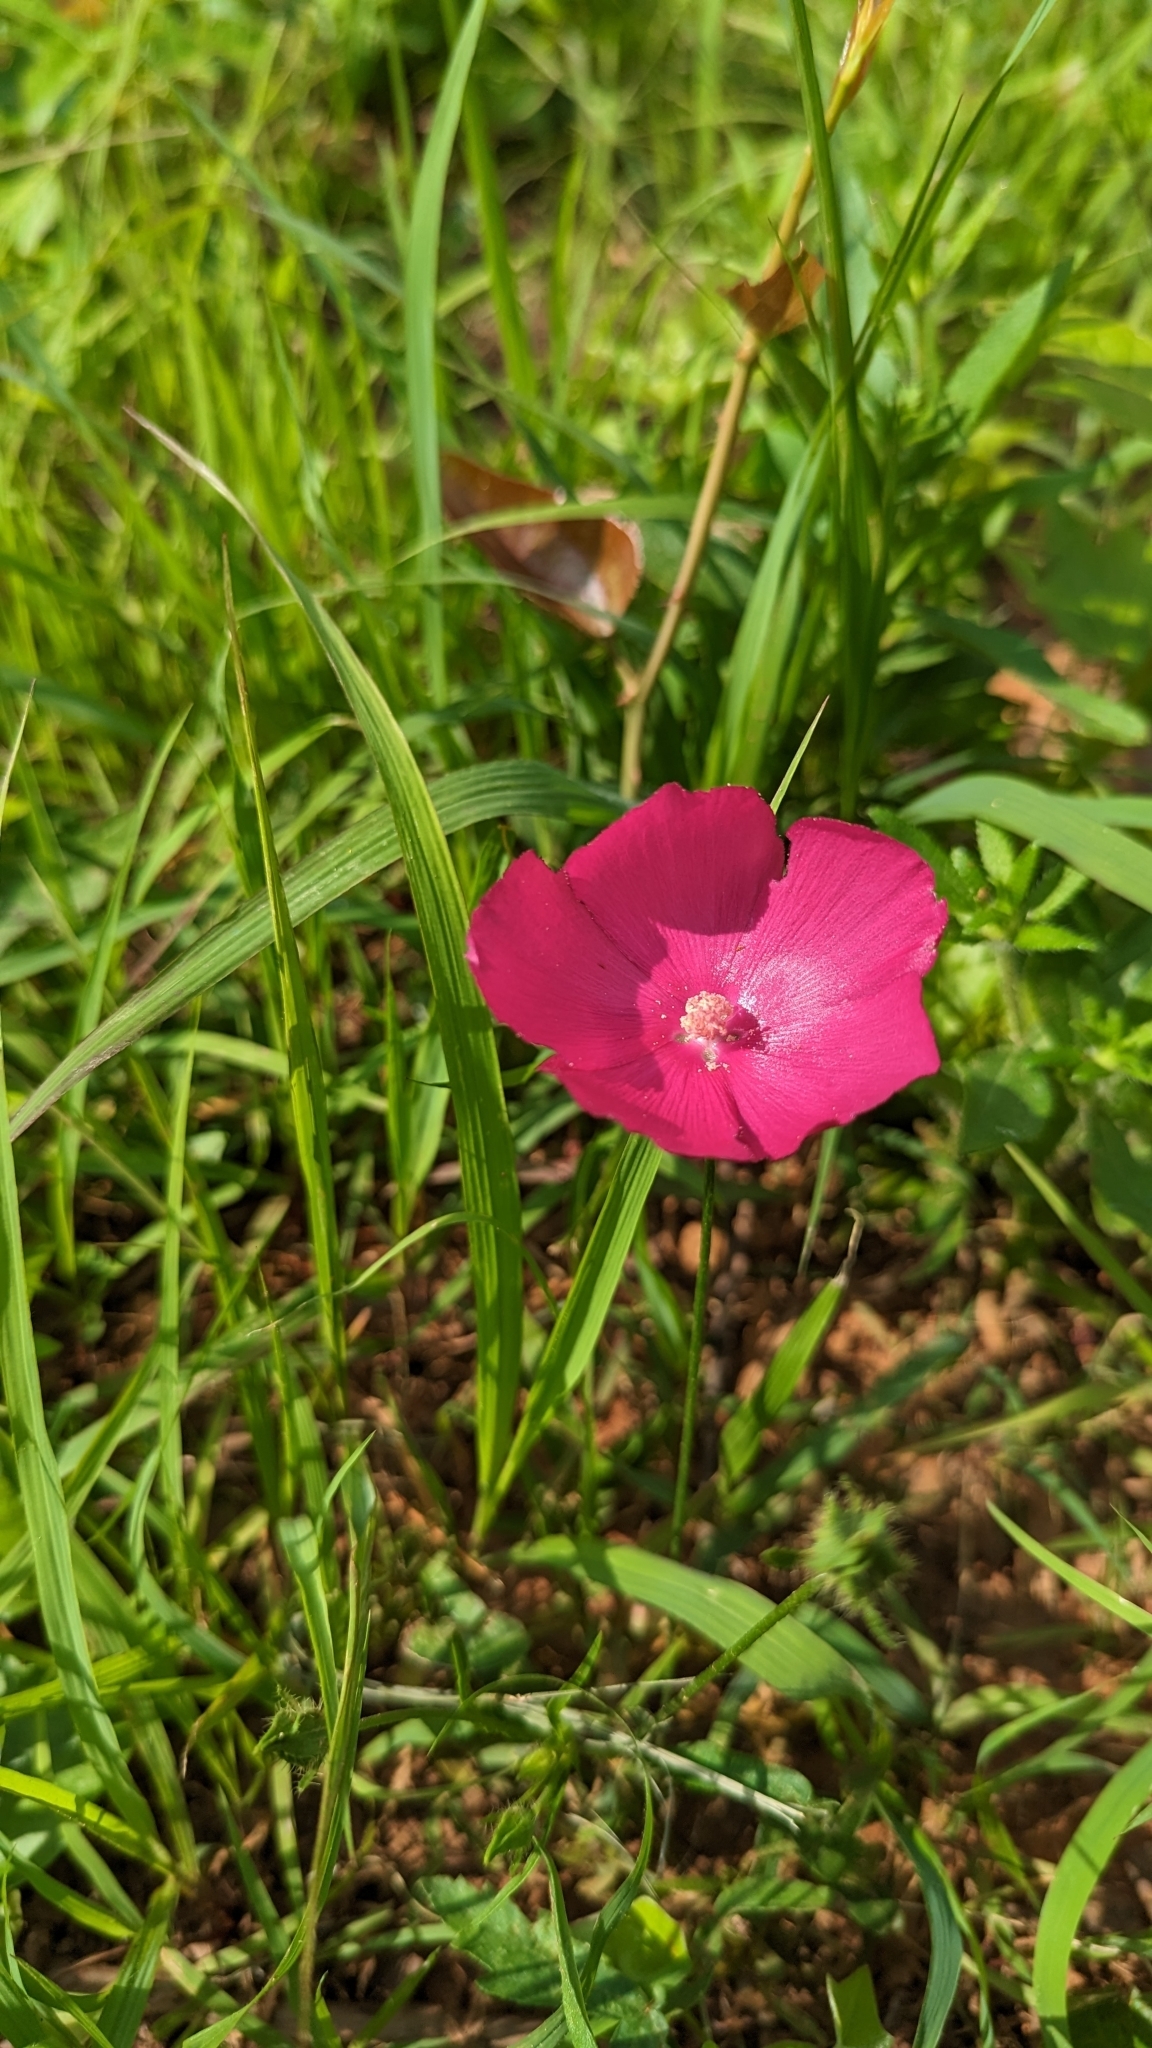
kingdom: Plantae
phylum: Tracheophyta
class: Magnoliopsida
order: Malvales
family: Malvaceae
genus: Callirhoe
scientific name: Callirhoe involucrata
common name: Purple poppy-mallow
